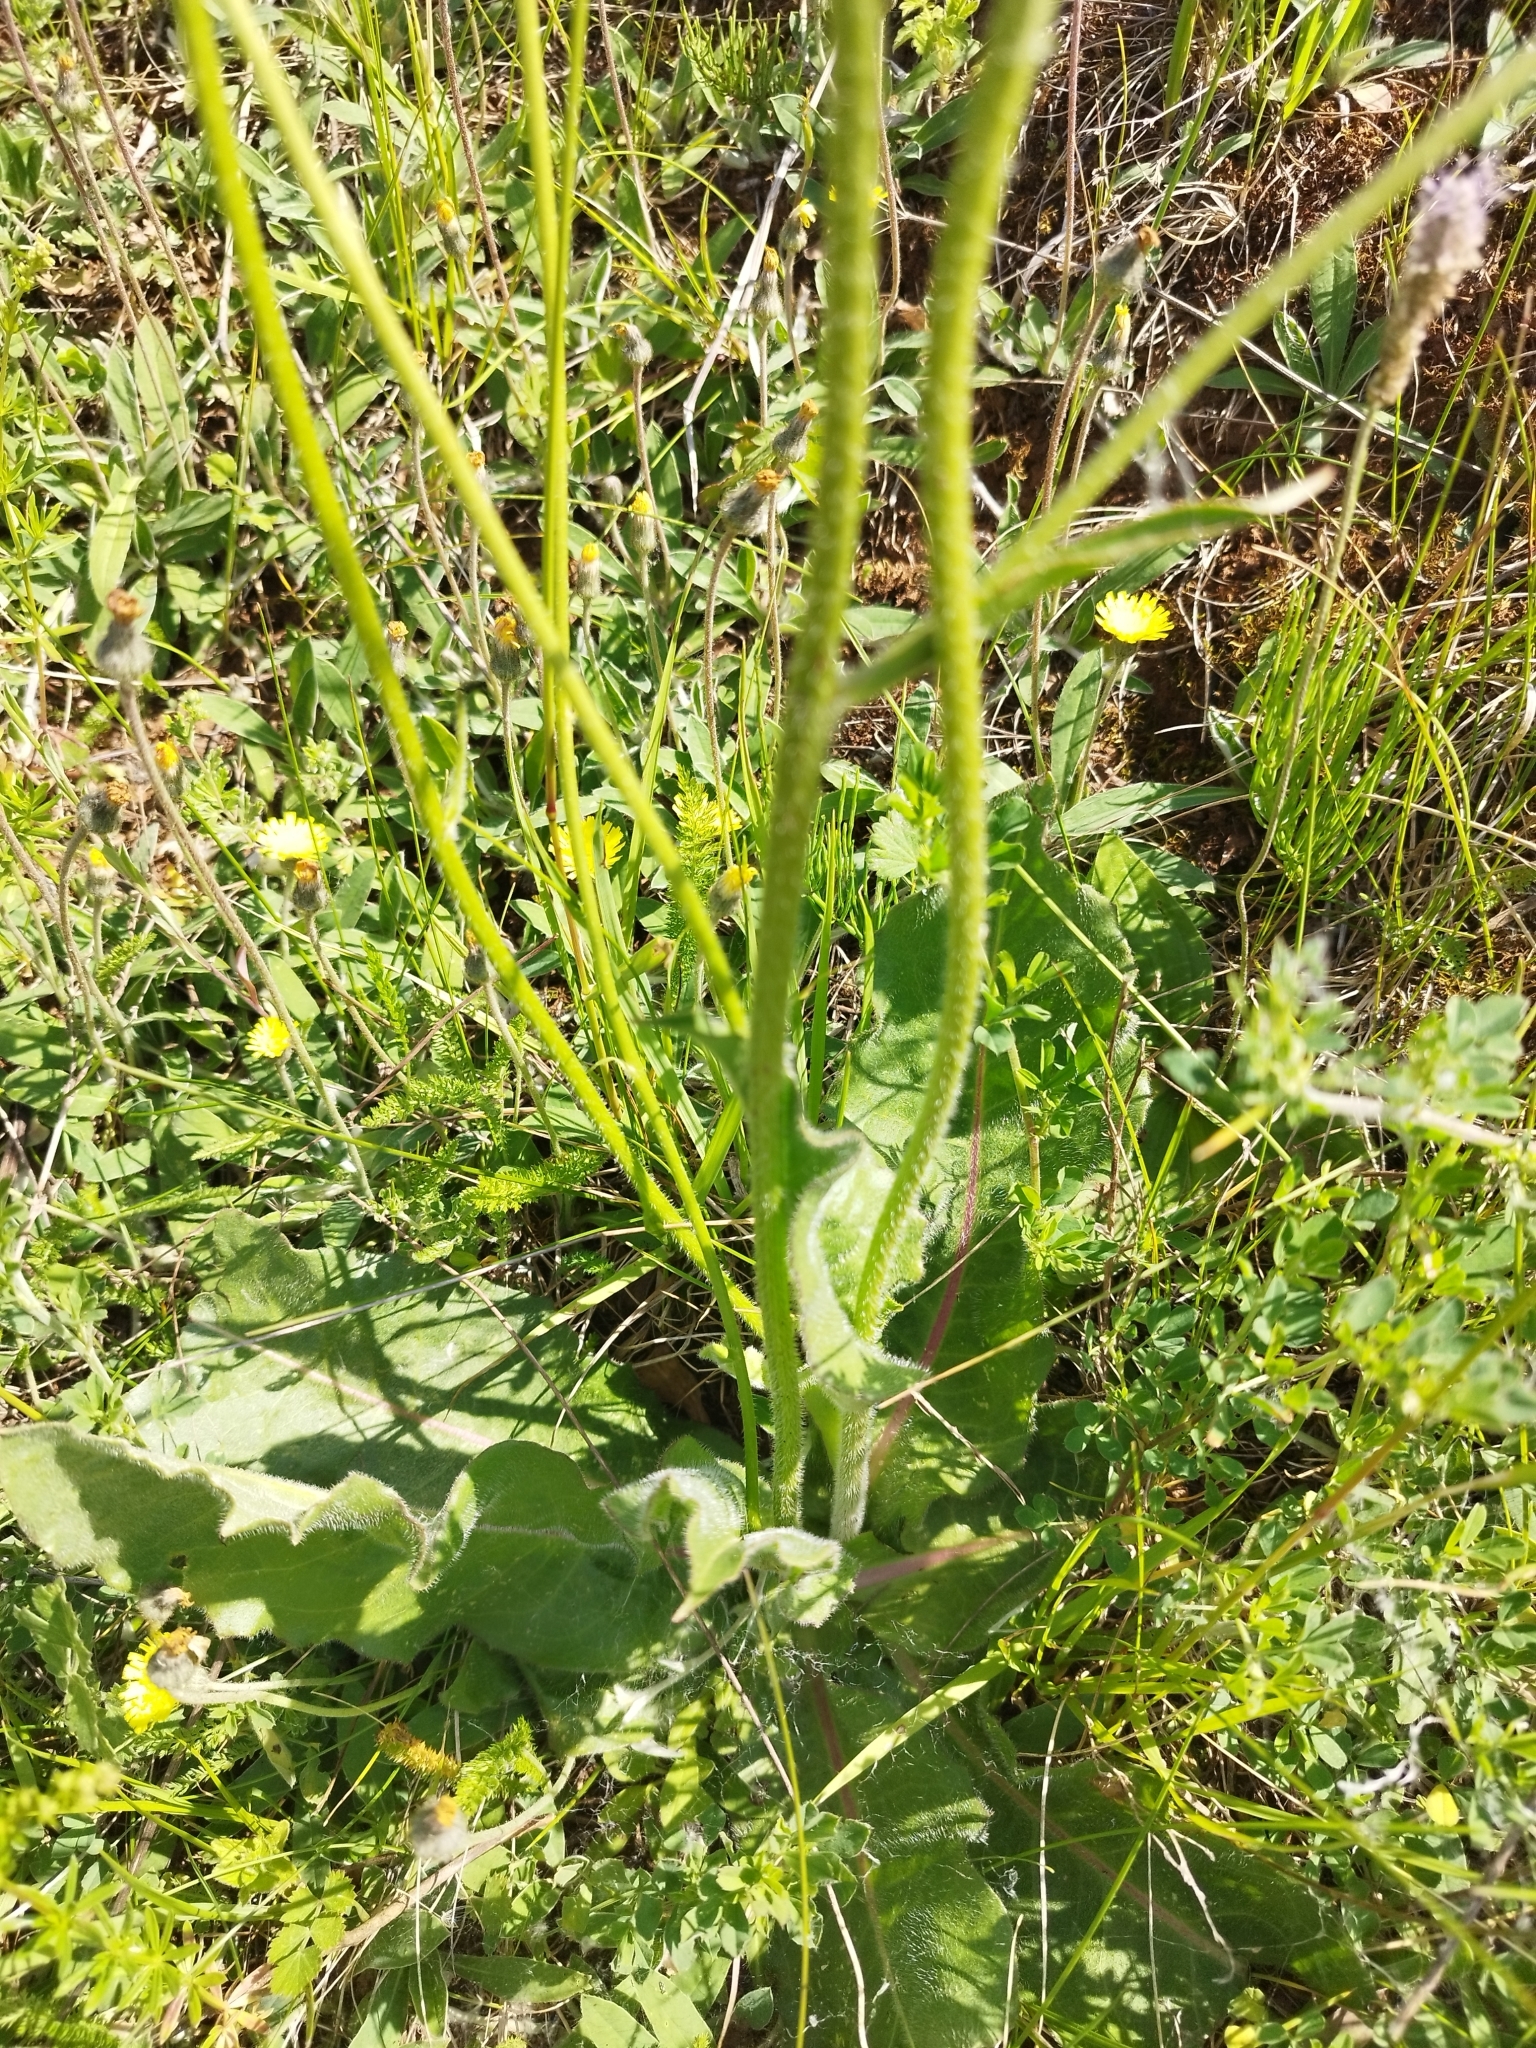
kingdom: Plantae
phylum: Tracheophyta
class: Magnoliopsida
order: Asterales
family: Asteraceae
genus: Leontodon
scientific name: Leontodon hispidus
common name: Rough hawkbit
